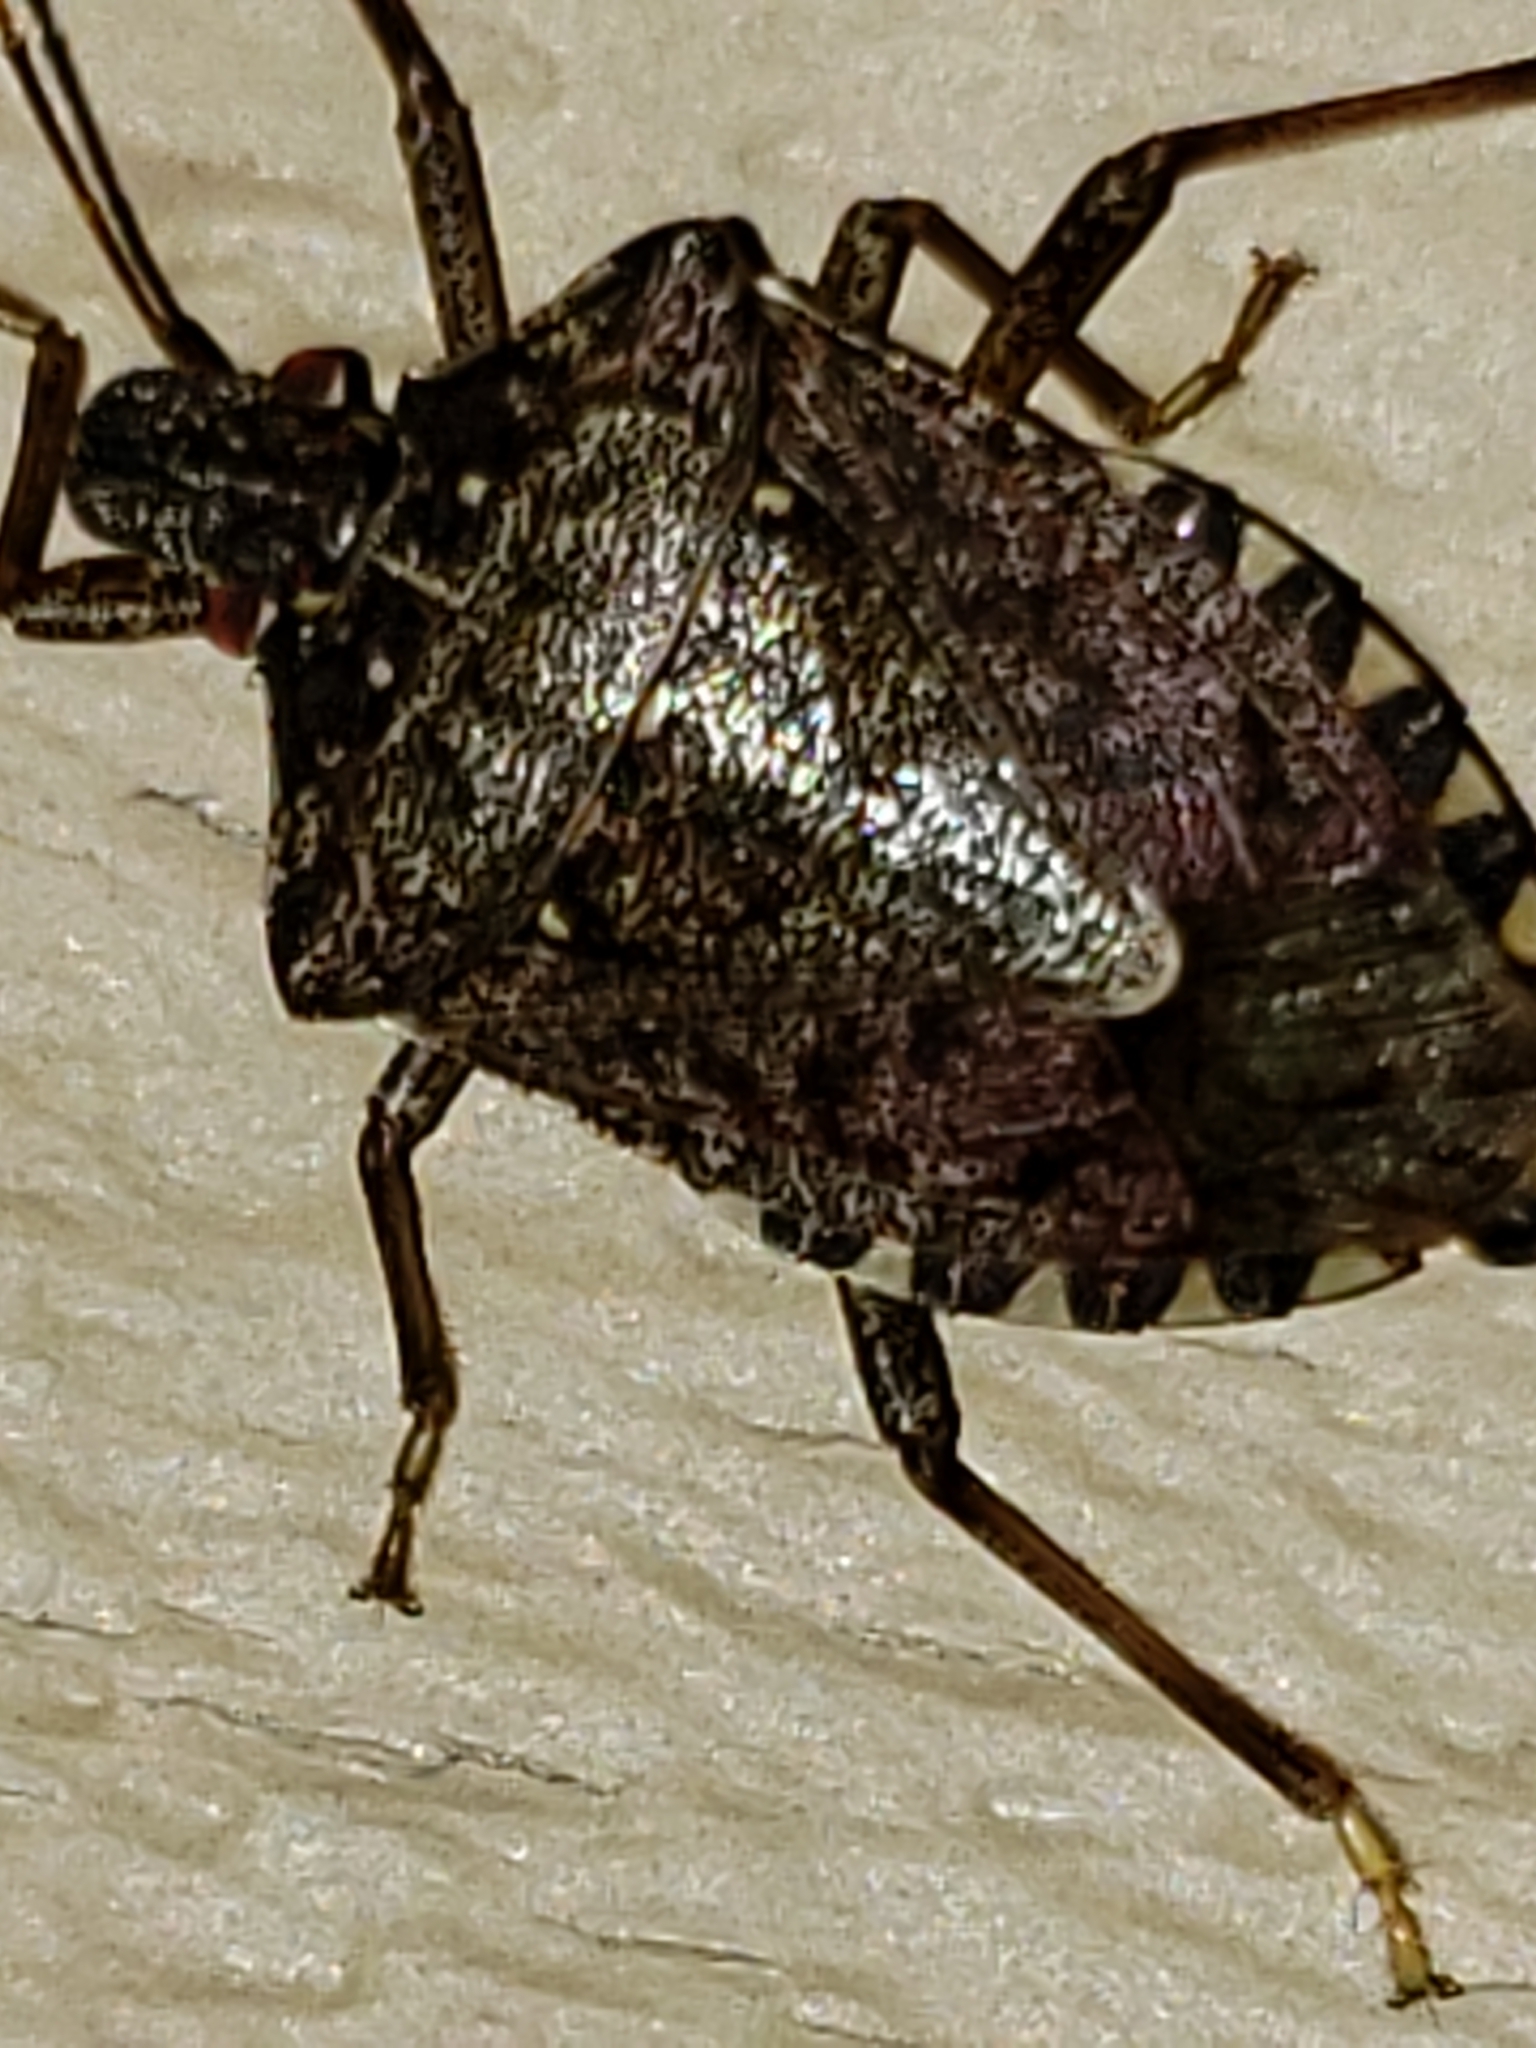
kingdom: Animalia
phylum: Arthropoda
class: Insecta
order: Hemiptera
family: Pentatomidae
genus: Halyomorpha
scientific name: Halyomorpha halys
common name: Brown marmorated stink bug
